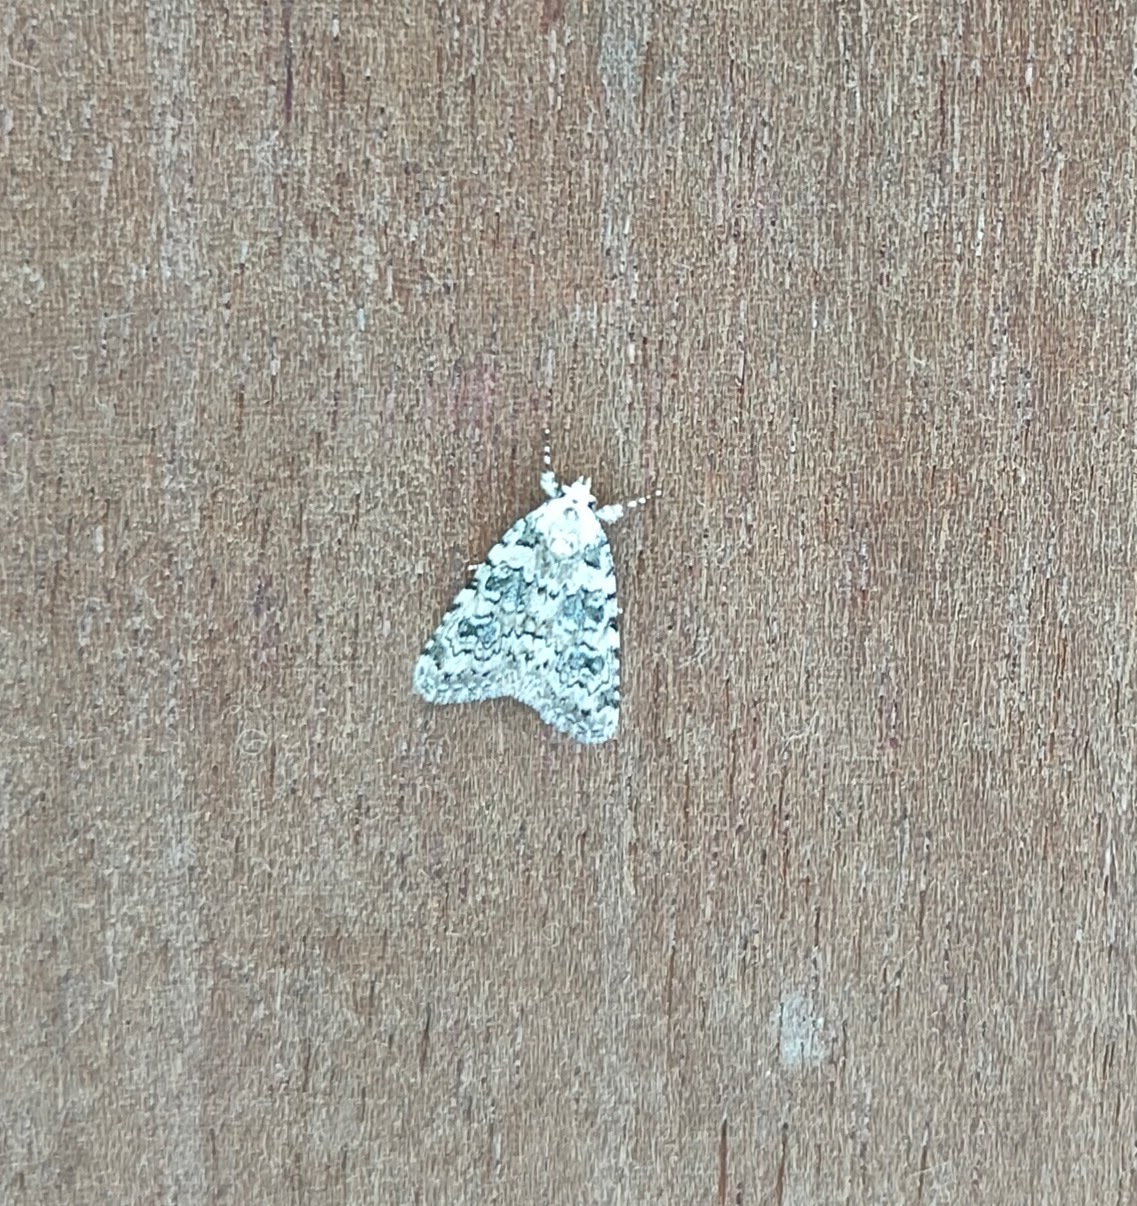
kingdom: Animalia
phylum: Arthropoda
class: Insecta
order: Lepidoptera
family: Noctuidae
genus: Bryophila
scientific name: Bryophila domestica
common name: Marbled beauty
